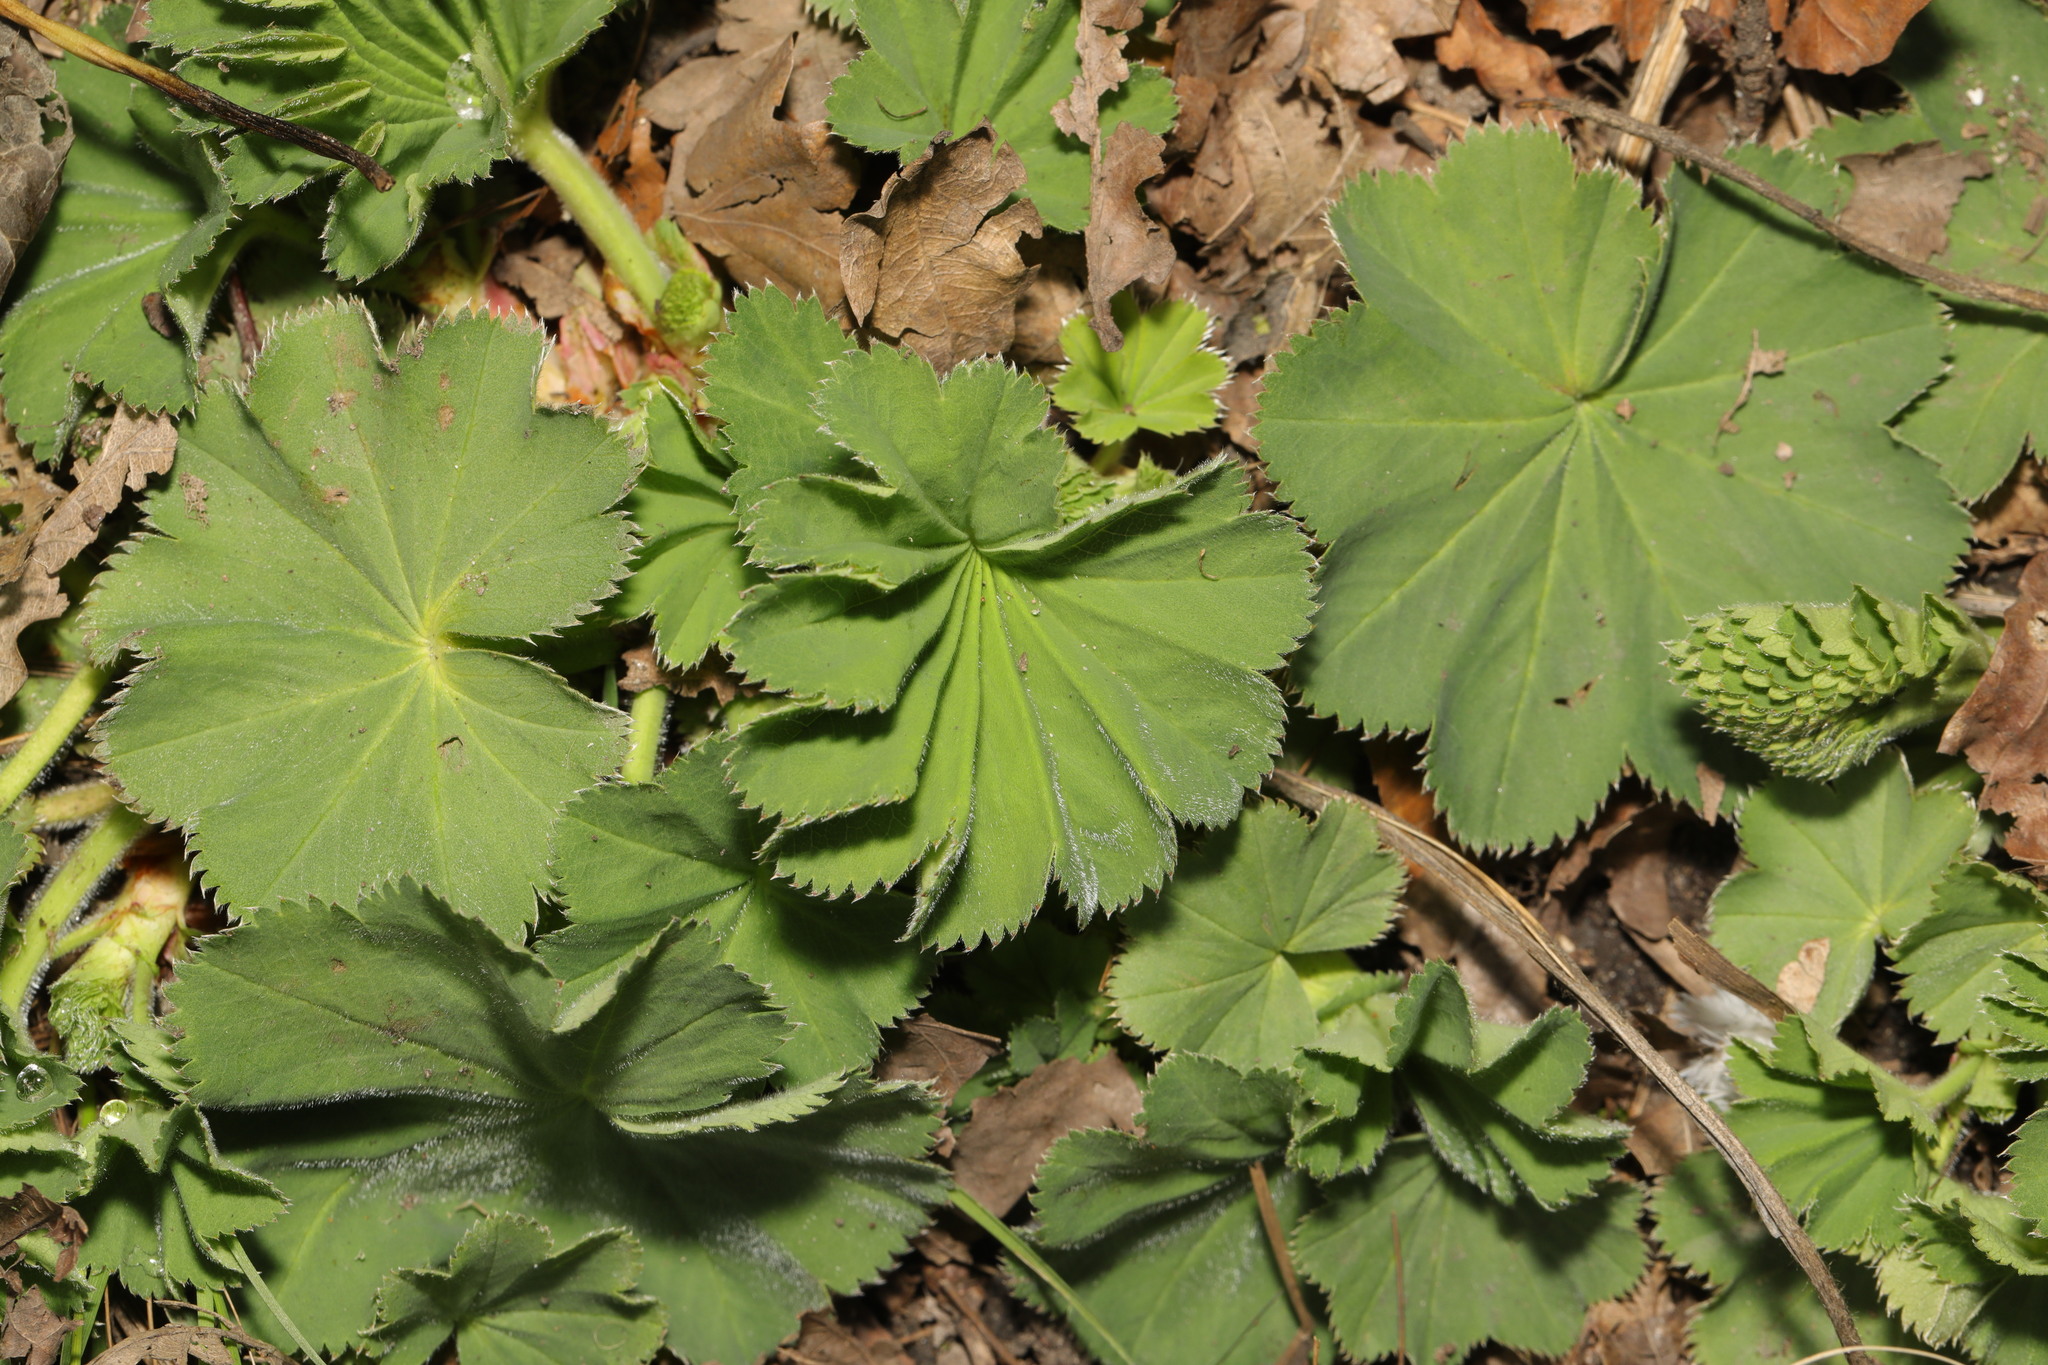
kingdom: Plantae
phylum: Tracheophyta
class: Magnoliopsida
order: Rosales
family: Rosaceae
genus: Alchemilla
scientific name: Alchemilla mollis
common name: Lady's-mantle
